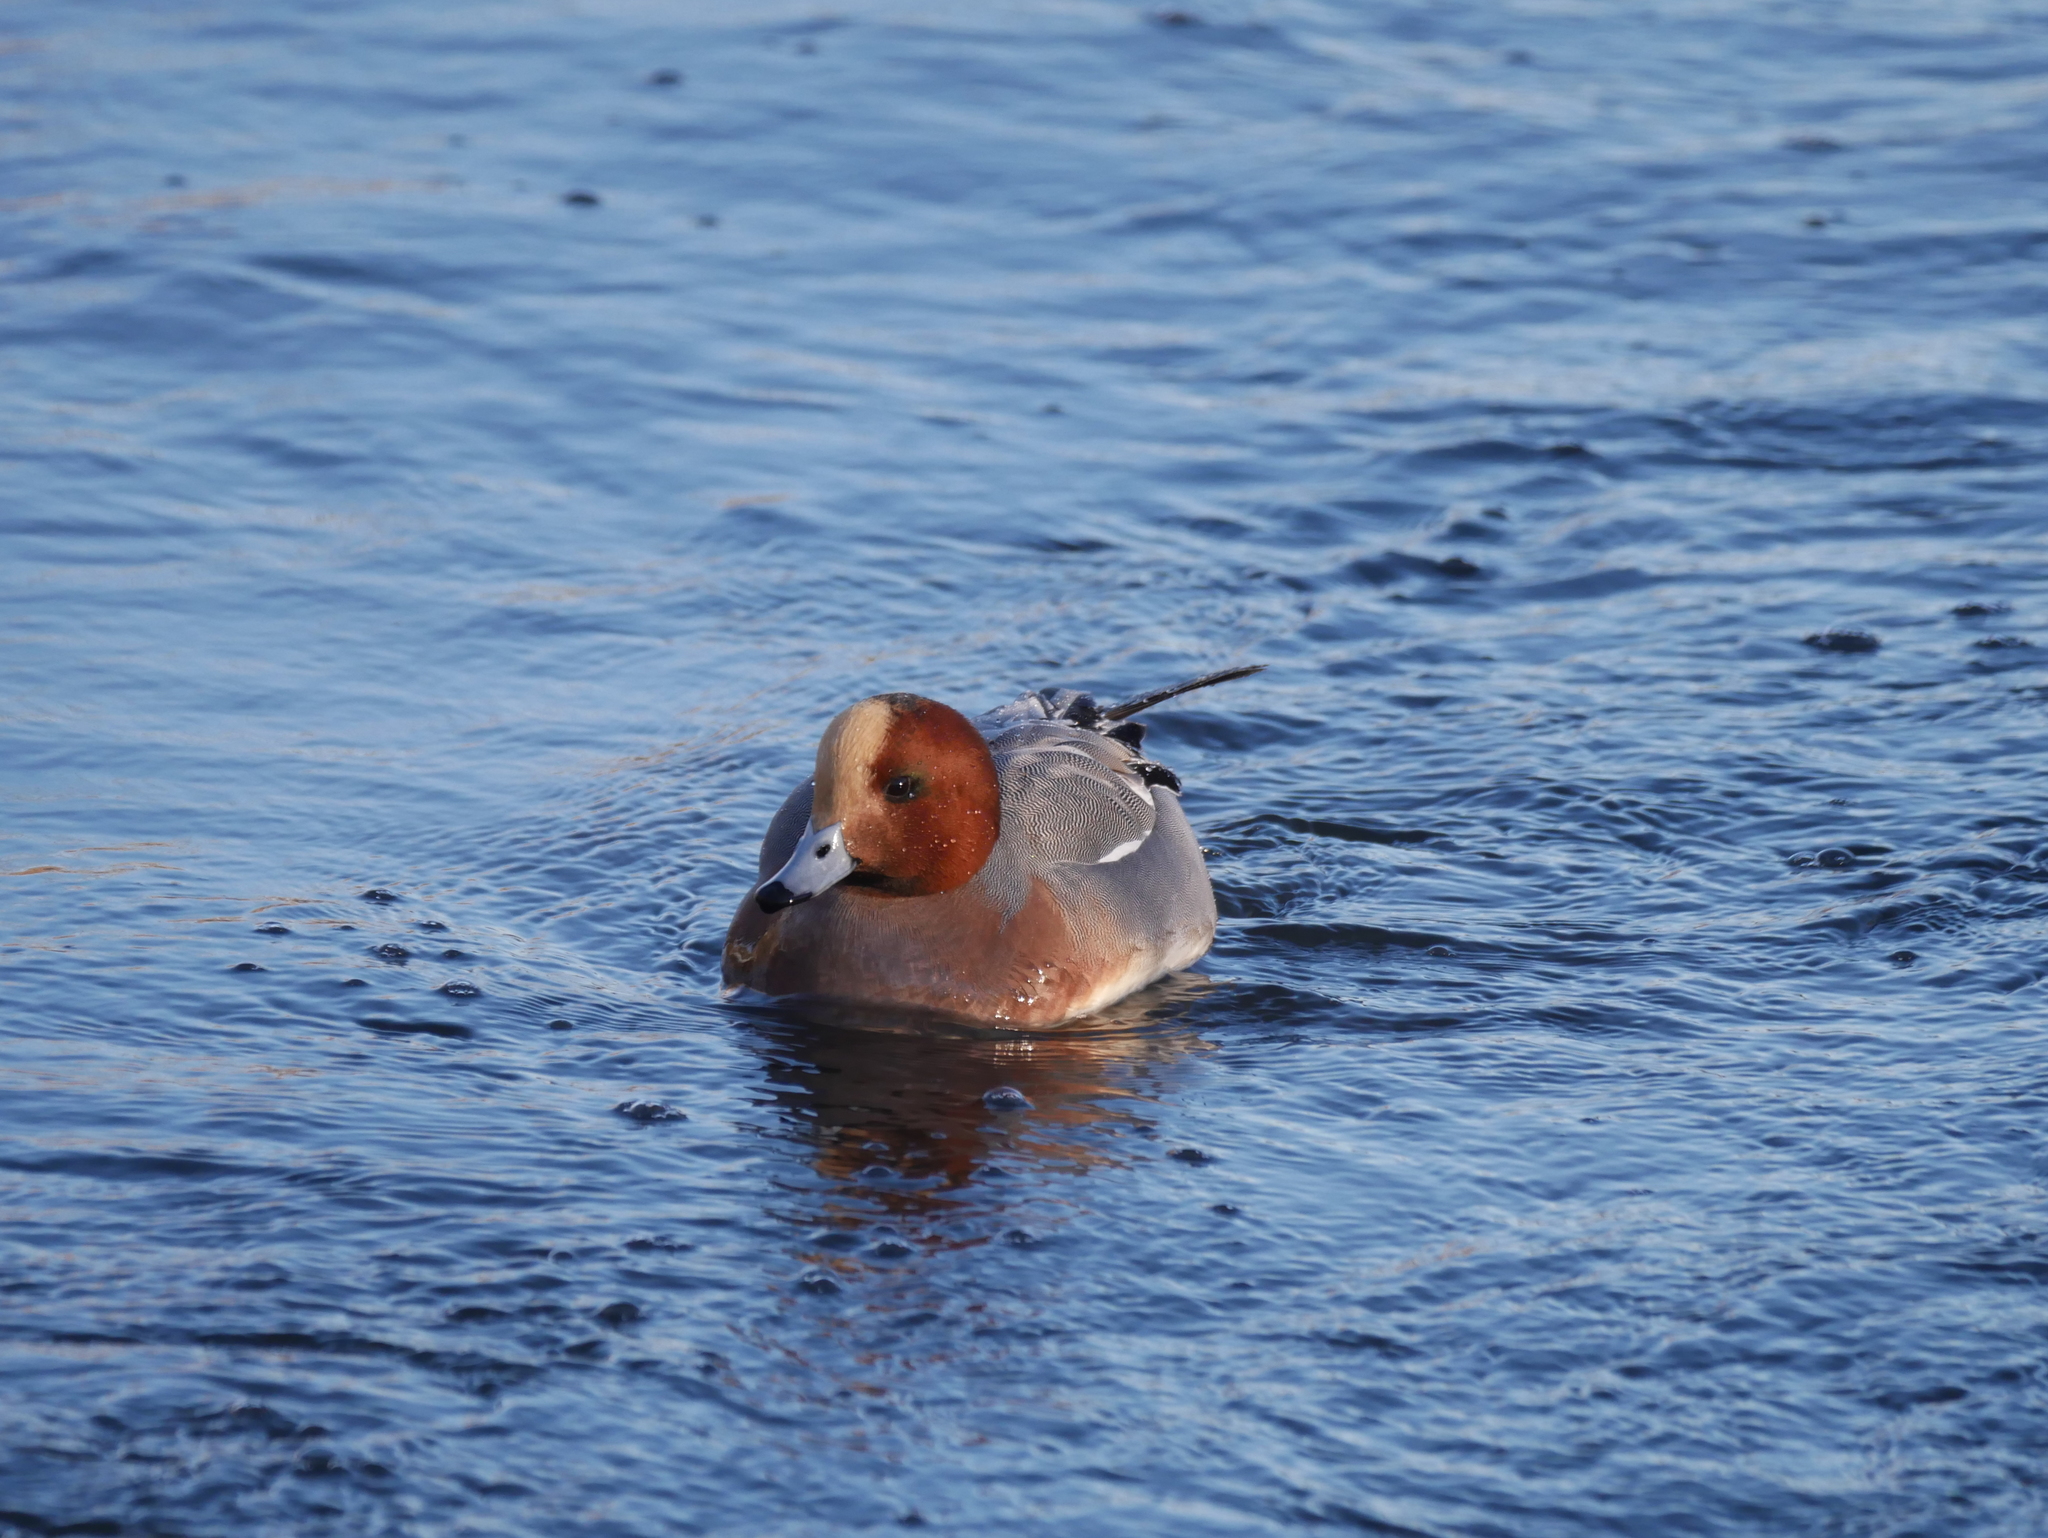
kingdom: Animalia
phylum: Chordata
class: Aves
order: Anseriformes
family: Anatidae
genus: Mareca
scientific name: Mareca penelope
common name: Eurasian wigeon
